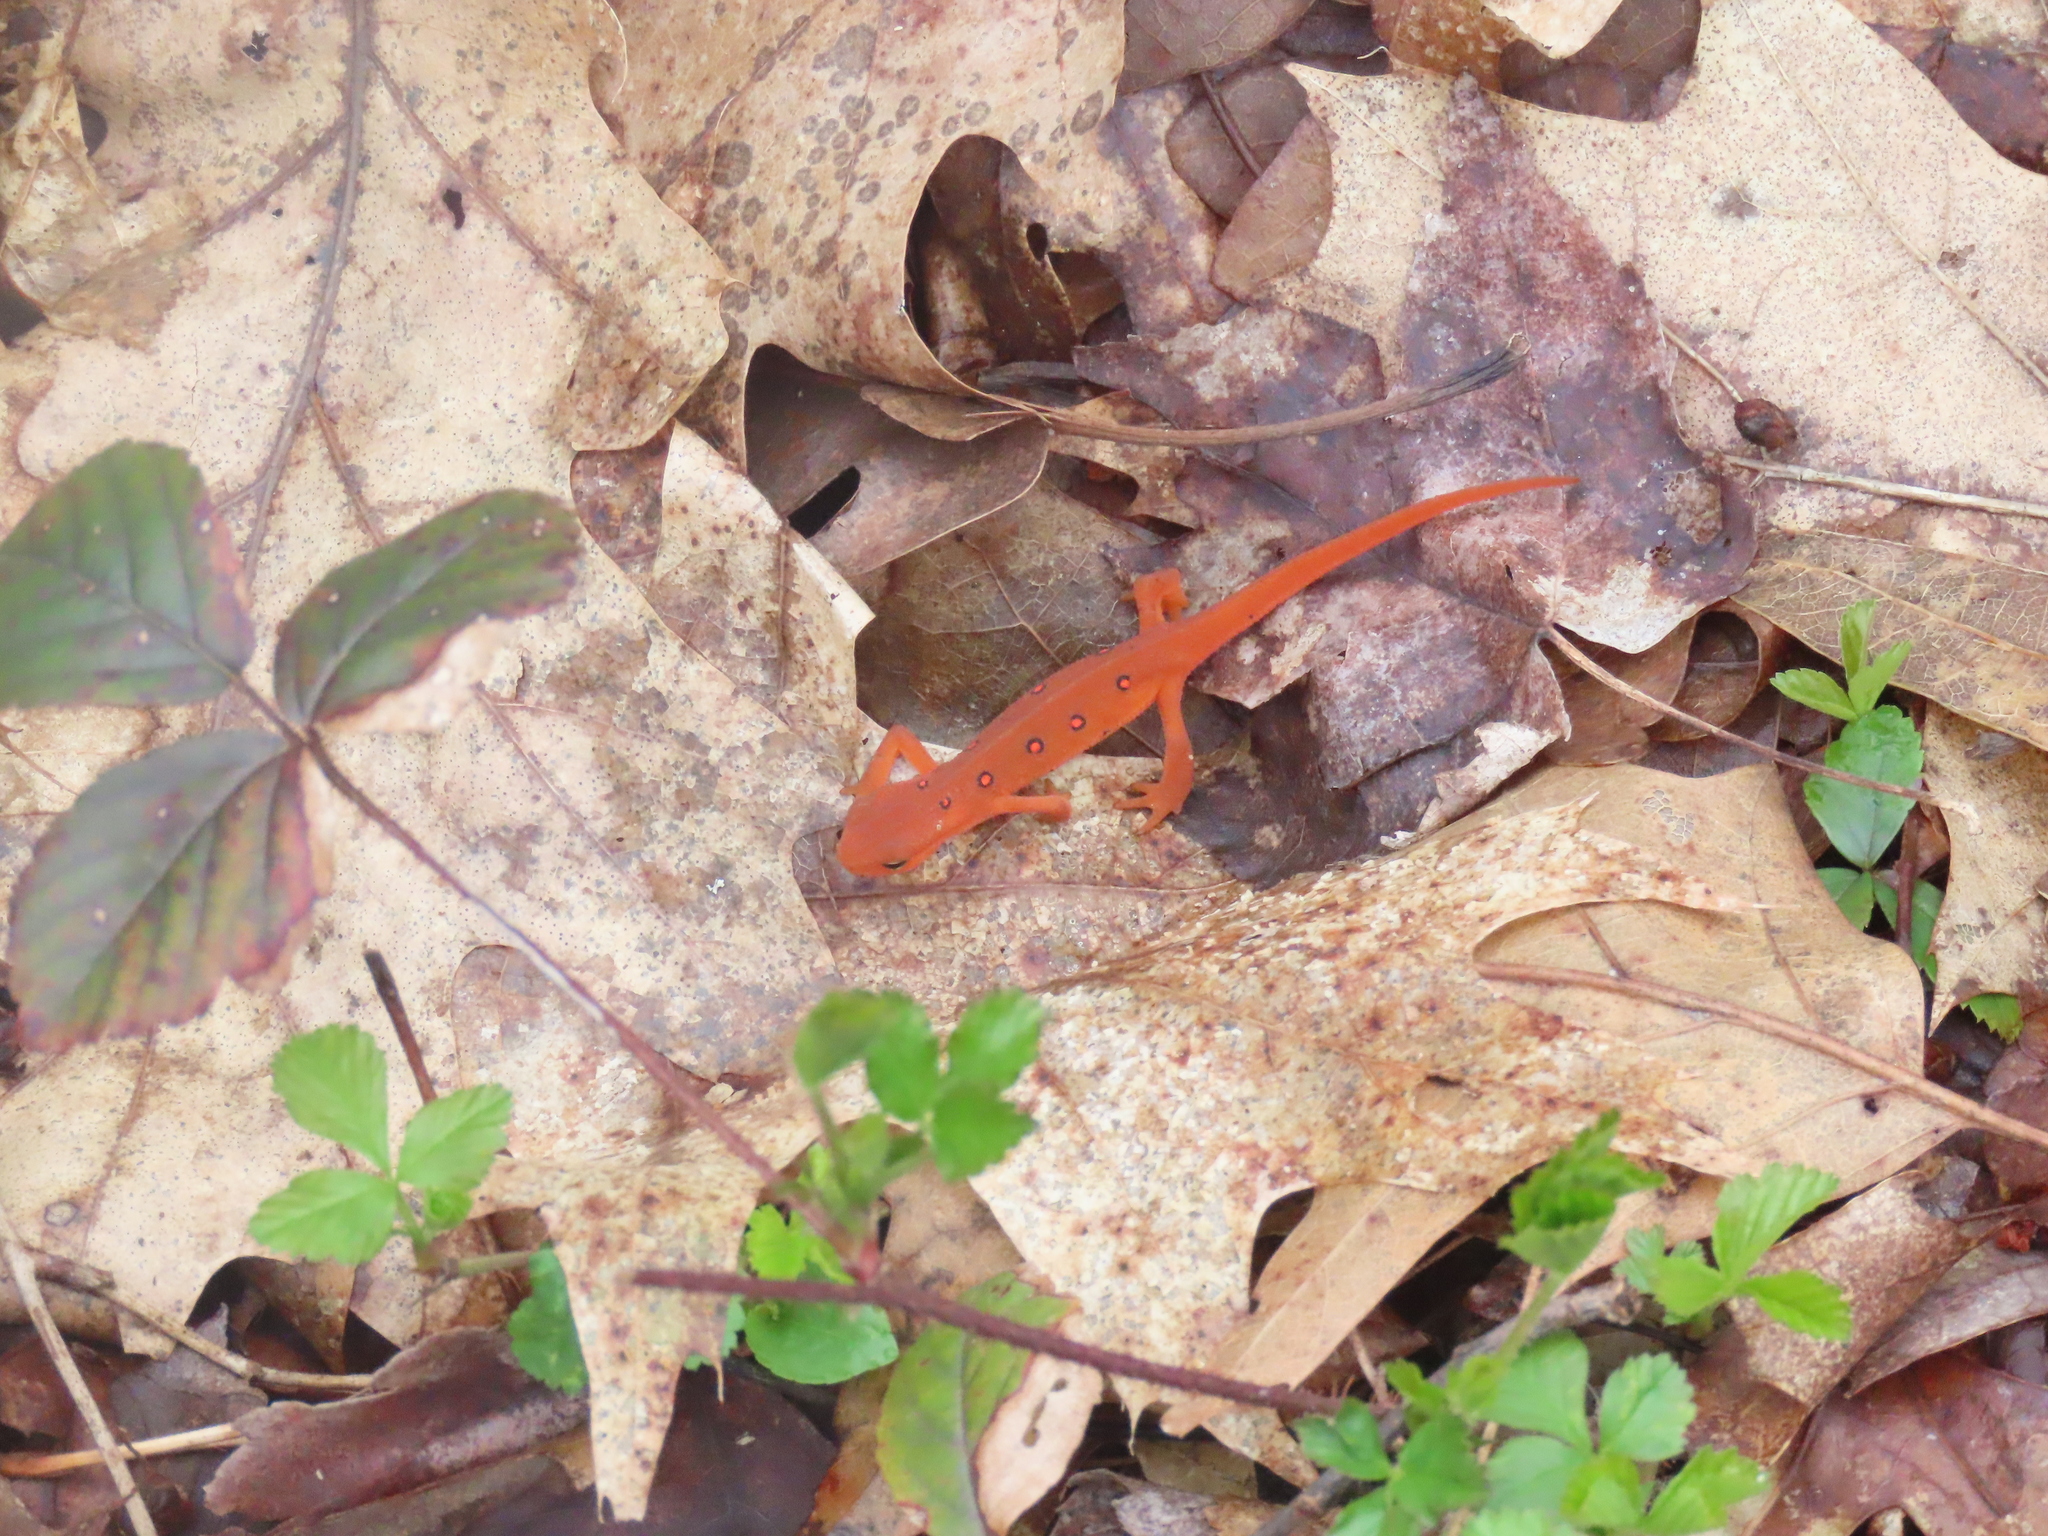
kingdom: Animalia
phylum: Chordata
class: Amphibia
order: Caudata
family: Salamandridae
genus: Notophthalmus
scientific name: Notophthalmus viridescens
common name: Eastern newt
